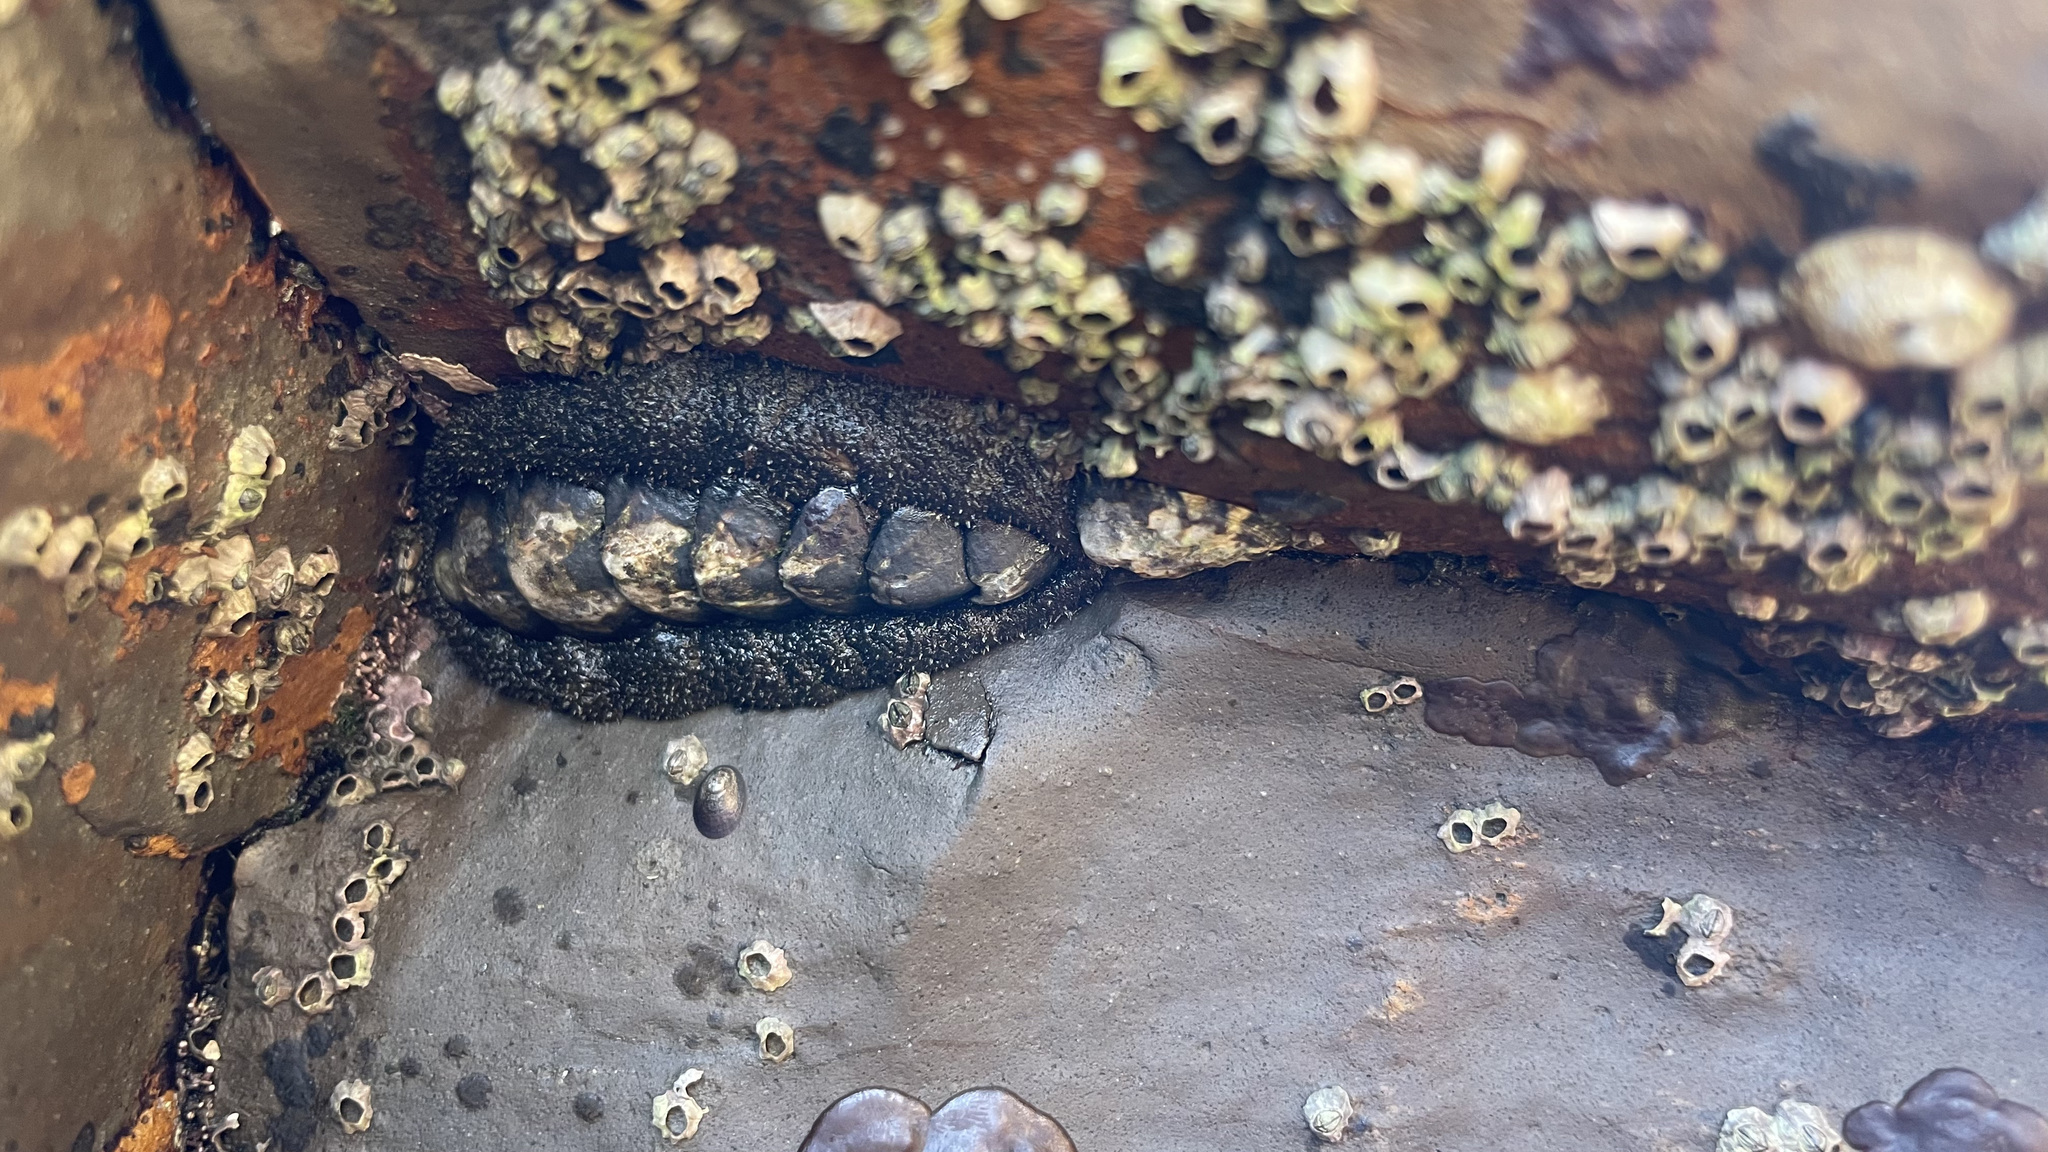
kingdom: Animalia
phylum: Mollusca
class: Polyplacophora
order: Chitonida
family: Tonicellidae
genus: Nuttallina
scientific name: Nuttallina californica
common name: California nuttall chiton
